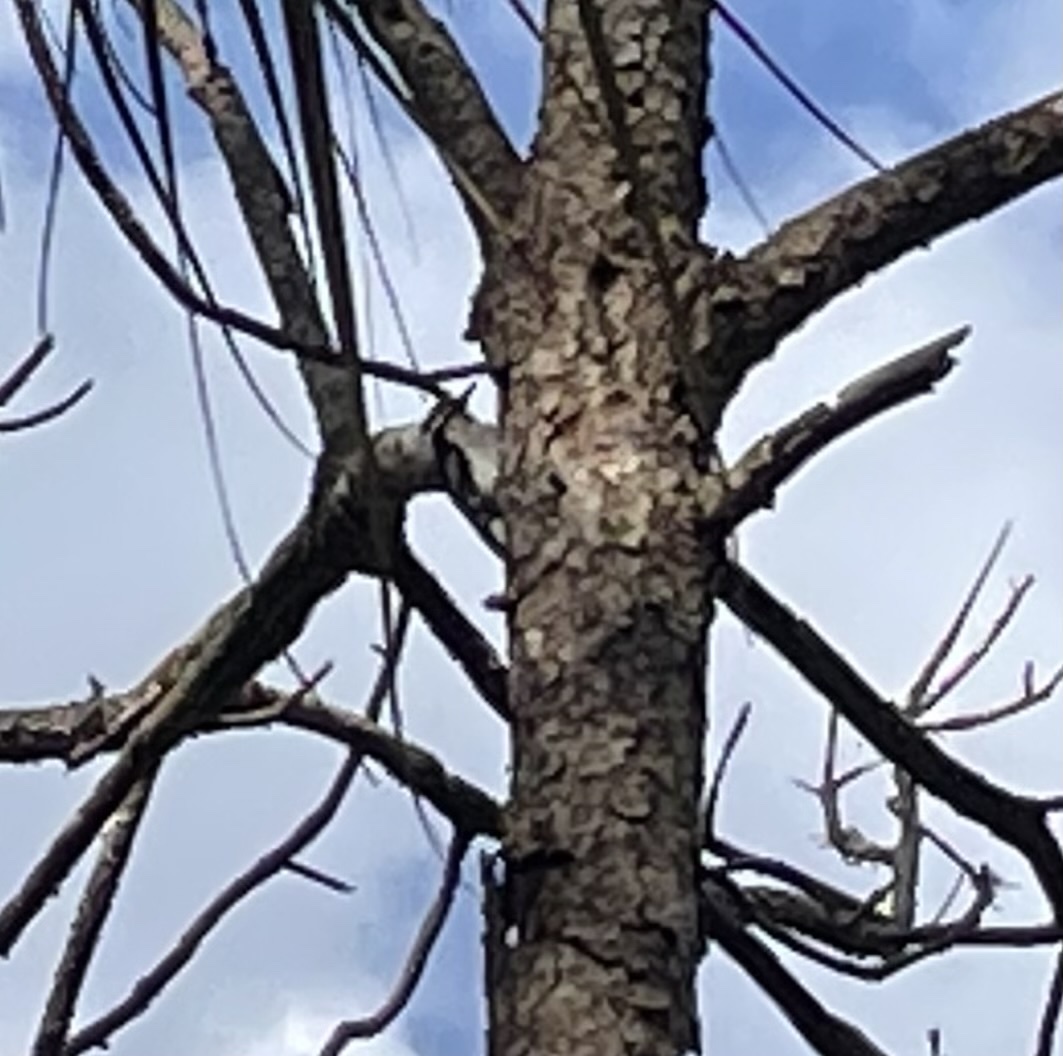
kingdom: Animalia
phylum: Chordata
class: Aves
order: Piciformes
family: Picidae
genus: Dryobates
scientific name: Dryobates pubescens
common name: Downy woodpecker
